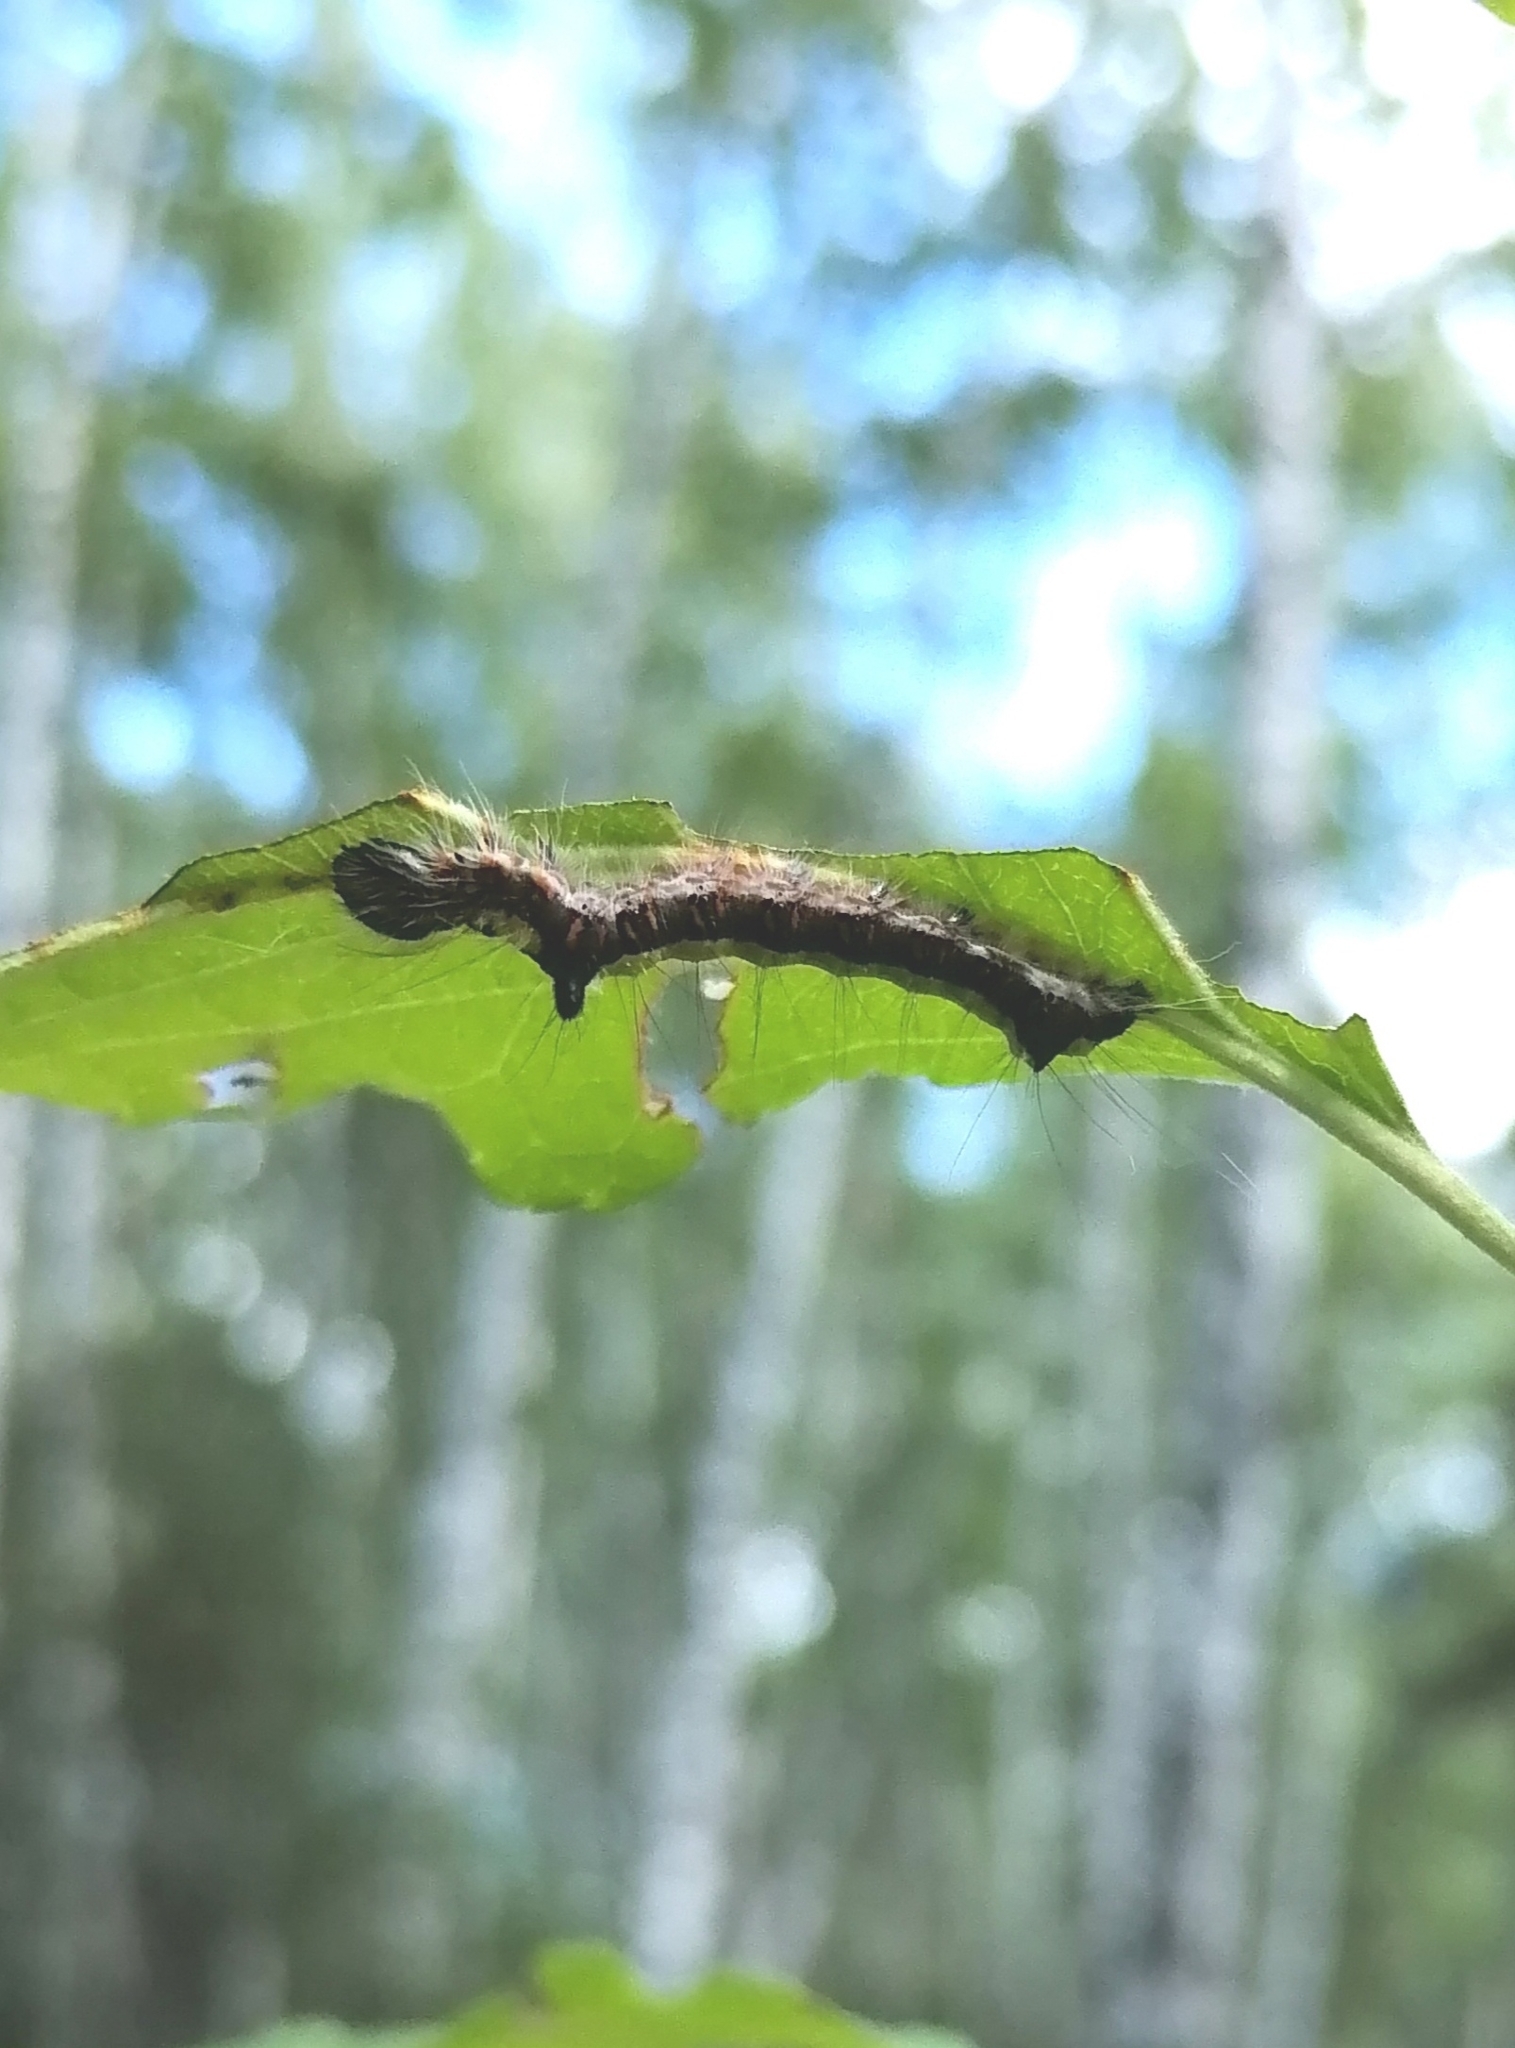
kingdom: Animalia
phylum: Arthropoda
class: Insecta
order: Lepidoptera
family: Noctuidae
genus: Acronicta
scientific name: Acronicta psi
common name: Grey dagger
